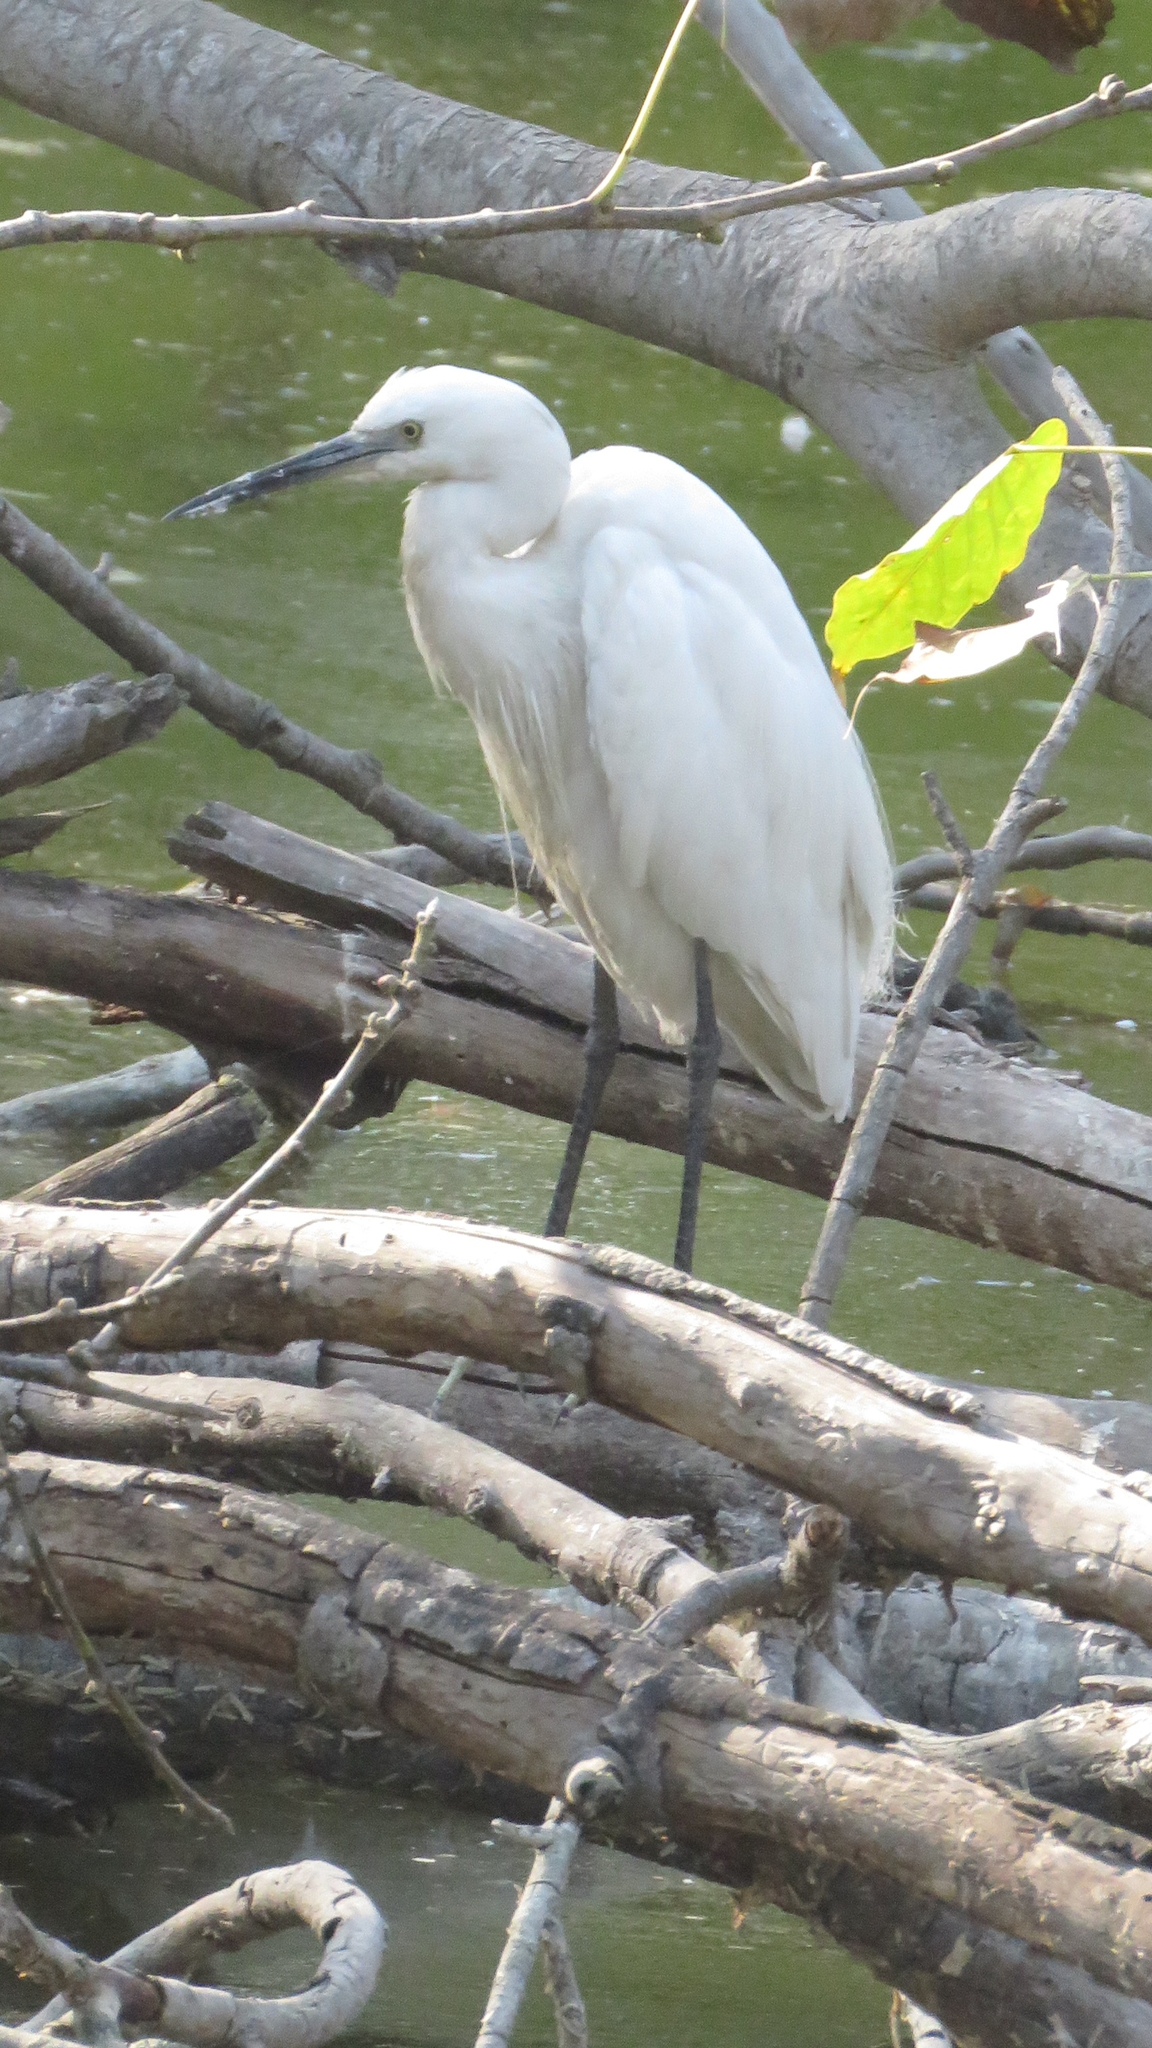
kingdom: Animalia
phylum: Chordata
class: Aves
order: Pelecaniformes
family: Ardeidae
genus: Egretta
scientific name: Egretta garzetta
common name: Little egret
